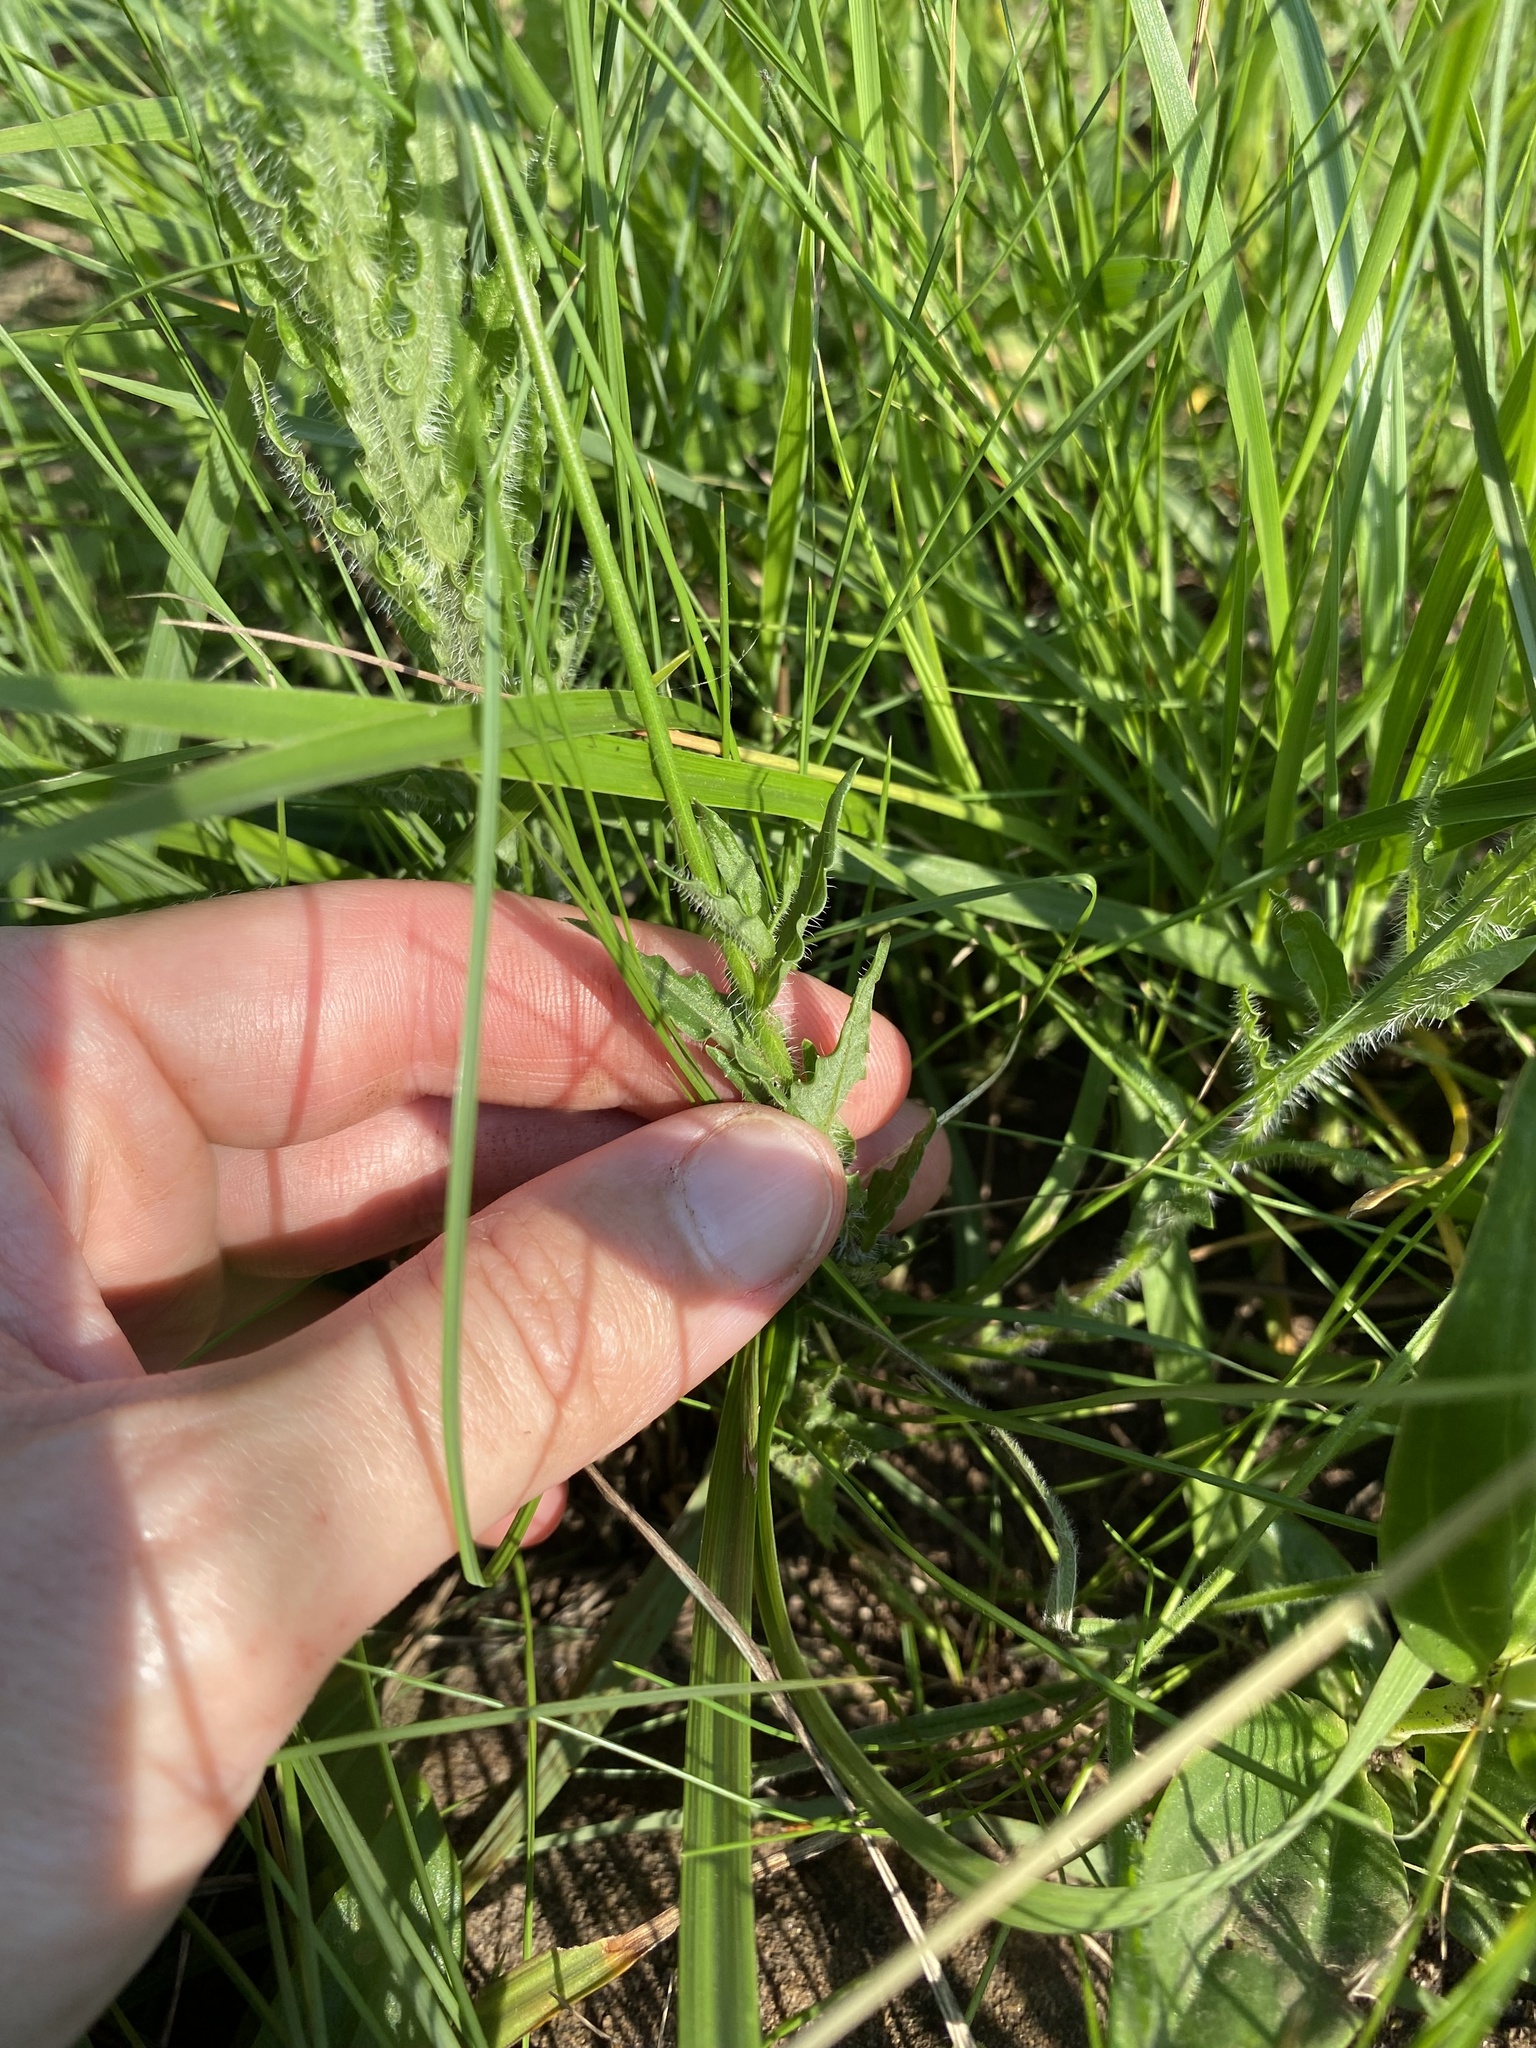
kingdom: Plantae
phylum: Tracheophyta
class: Magnoliopsida
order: Asterales
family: Campanulaceae
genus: Wahlenbergia
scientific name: Wahlenbergia undulata
